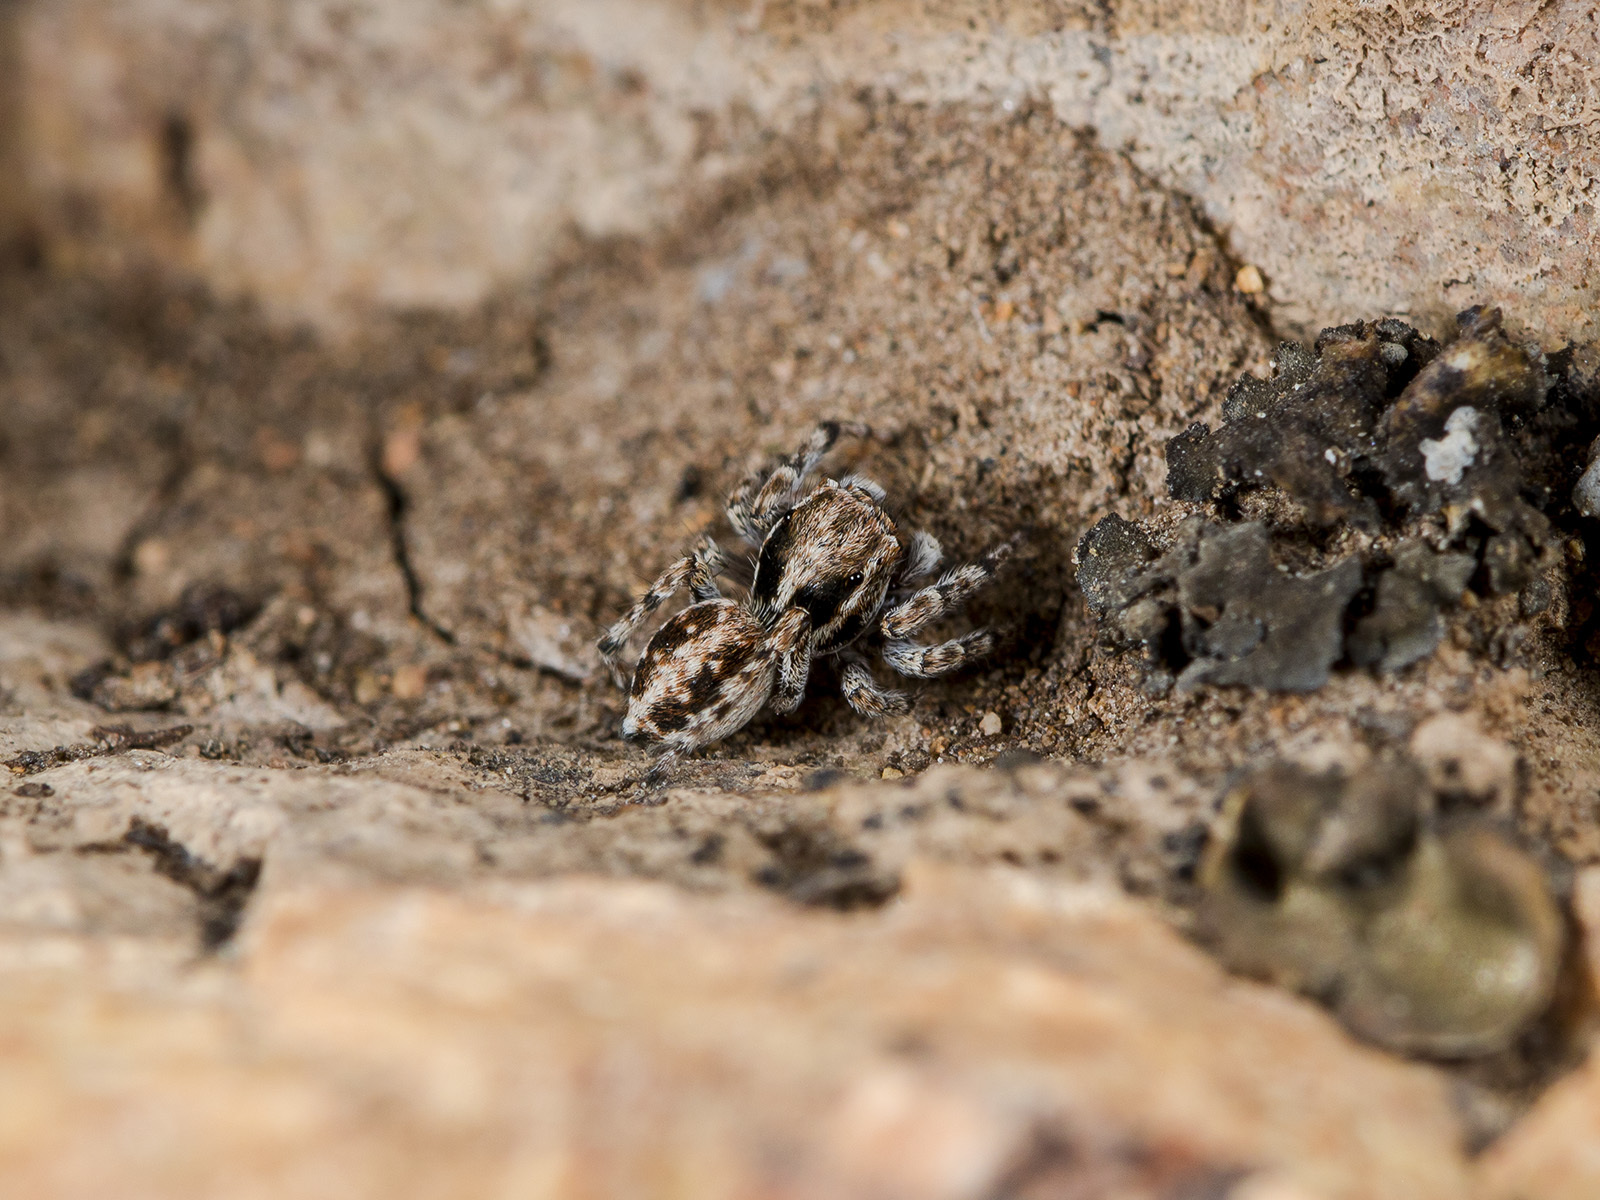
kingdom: Animalia
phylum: Arthropoda
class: Arachnida
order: Araneae
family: Salticidae
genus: Attulus
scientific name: Attulus distinguendus
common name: Distinguished jumper
